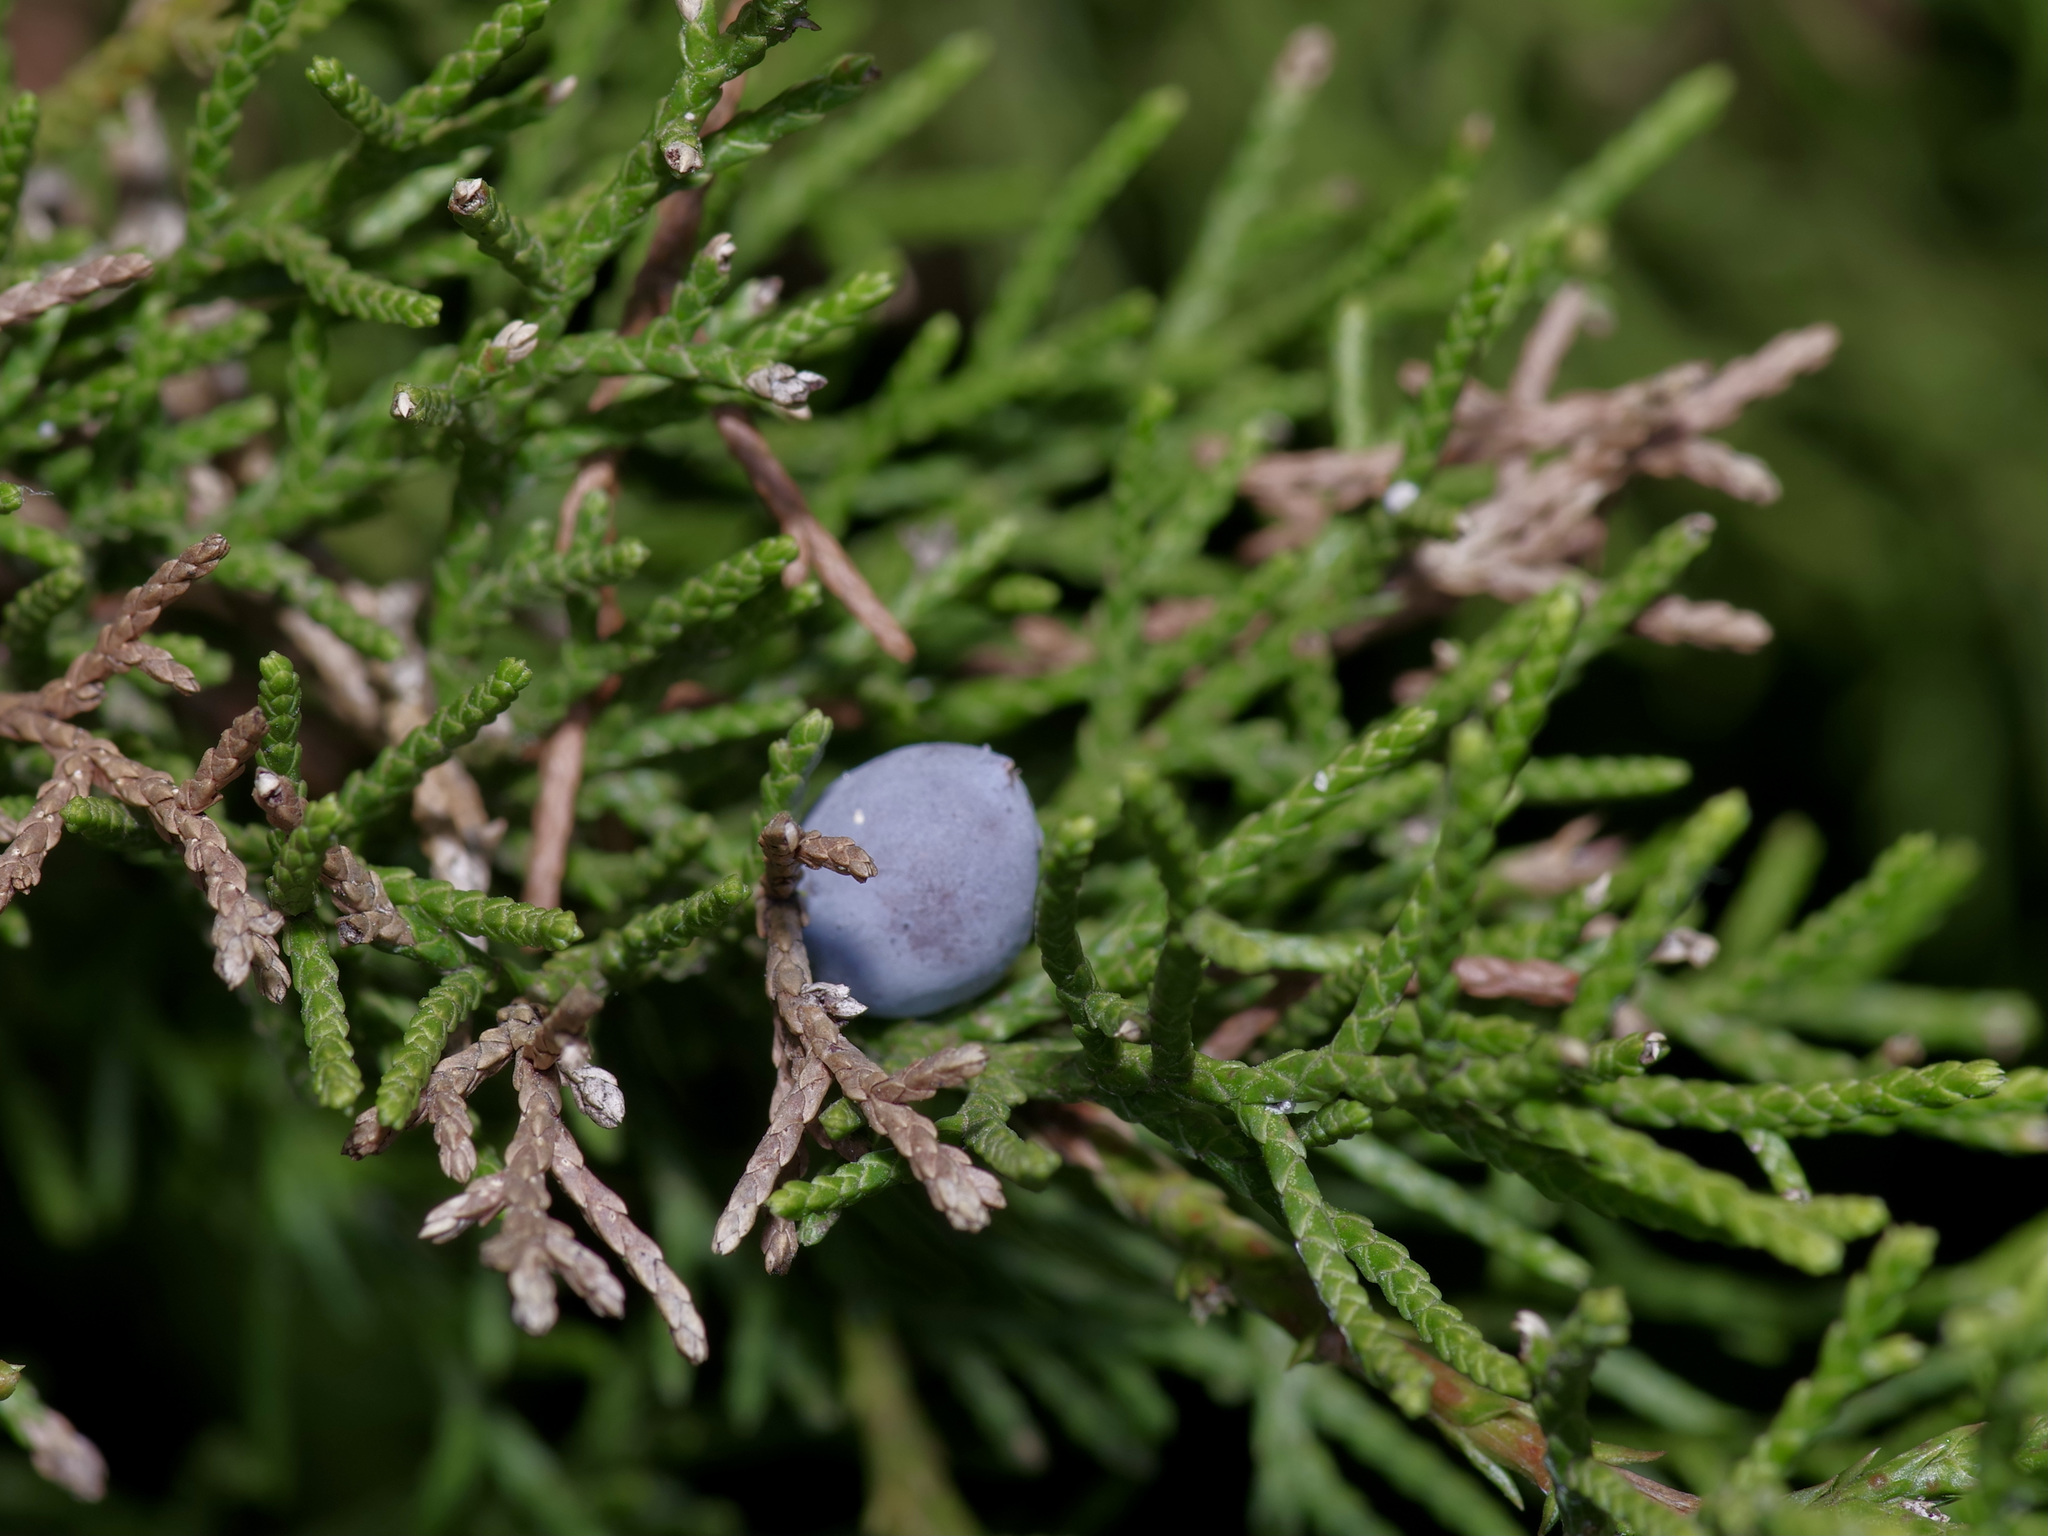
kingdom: Plantae
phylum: Tracheophyta
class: Pinopsida
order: Pinales
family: Cupressaceae
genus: Juniperus
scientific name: Juniperus ashei
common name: Mexican juniper
